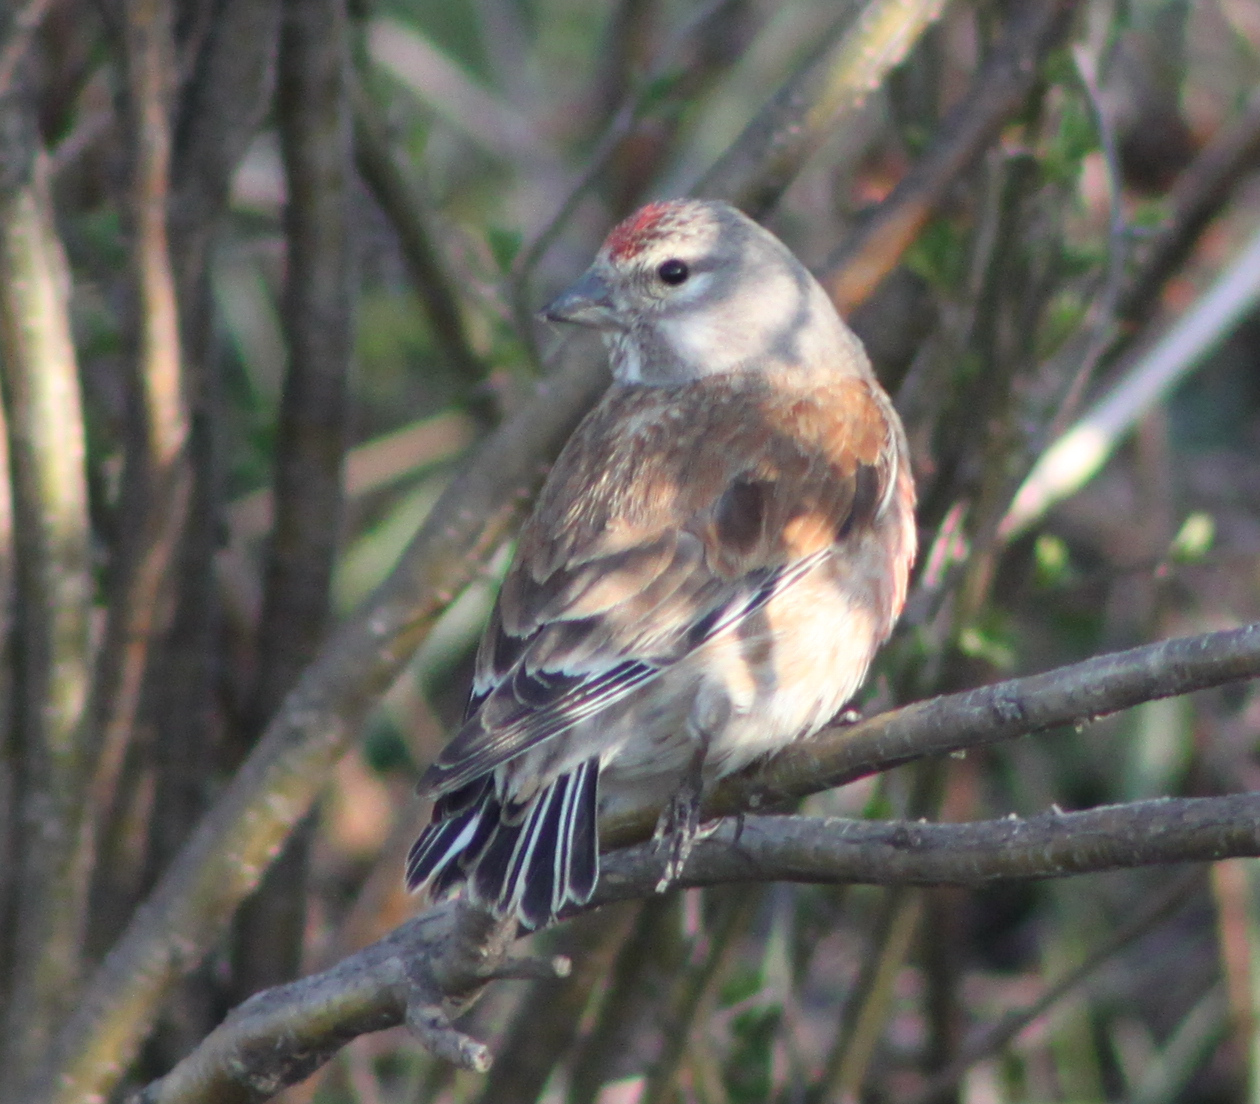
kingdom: Animalia
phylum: Chordata
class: Aves
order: Passeriformes
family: Fringillidae
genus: Linaria
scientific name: Linaria cannabina
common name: Common linnet
